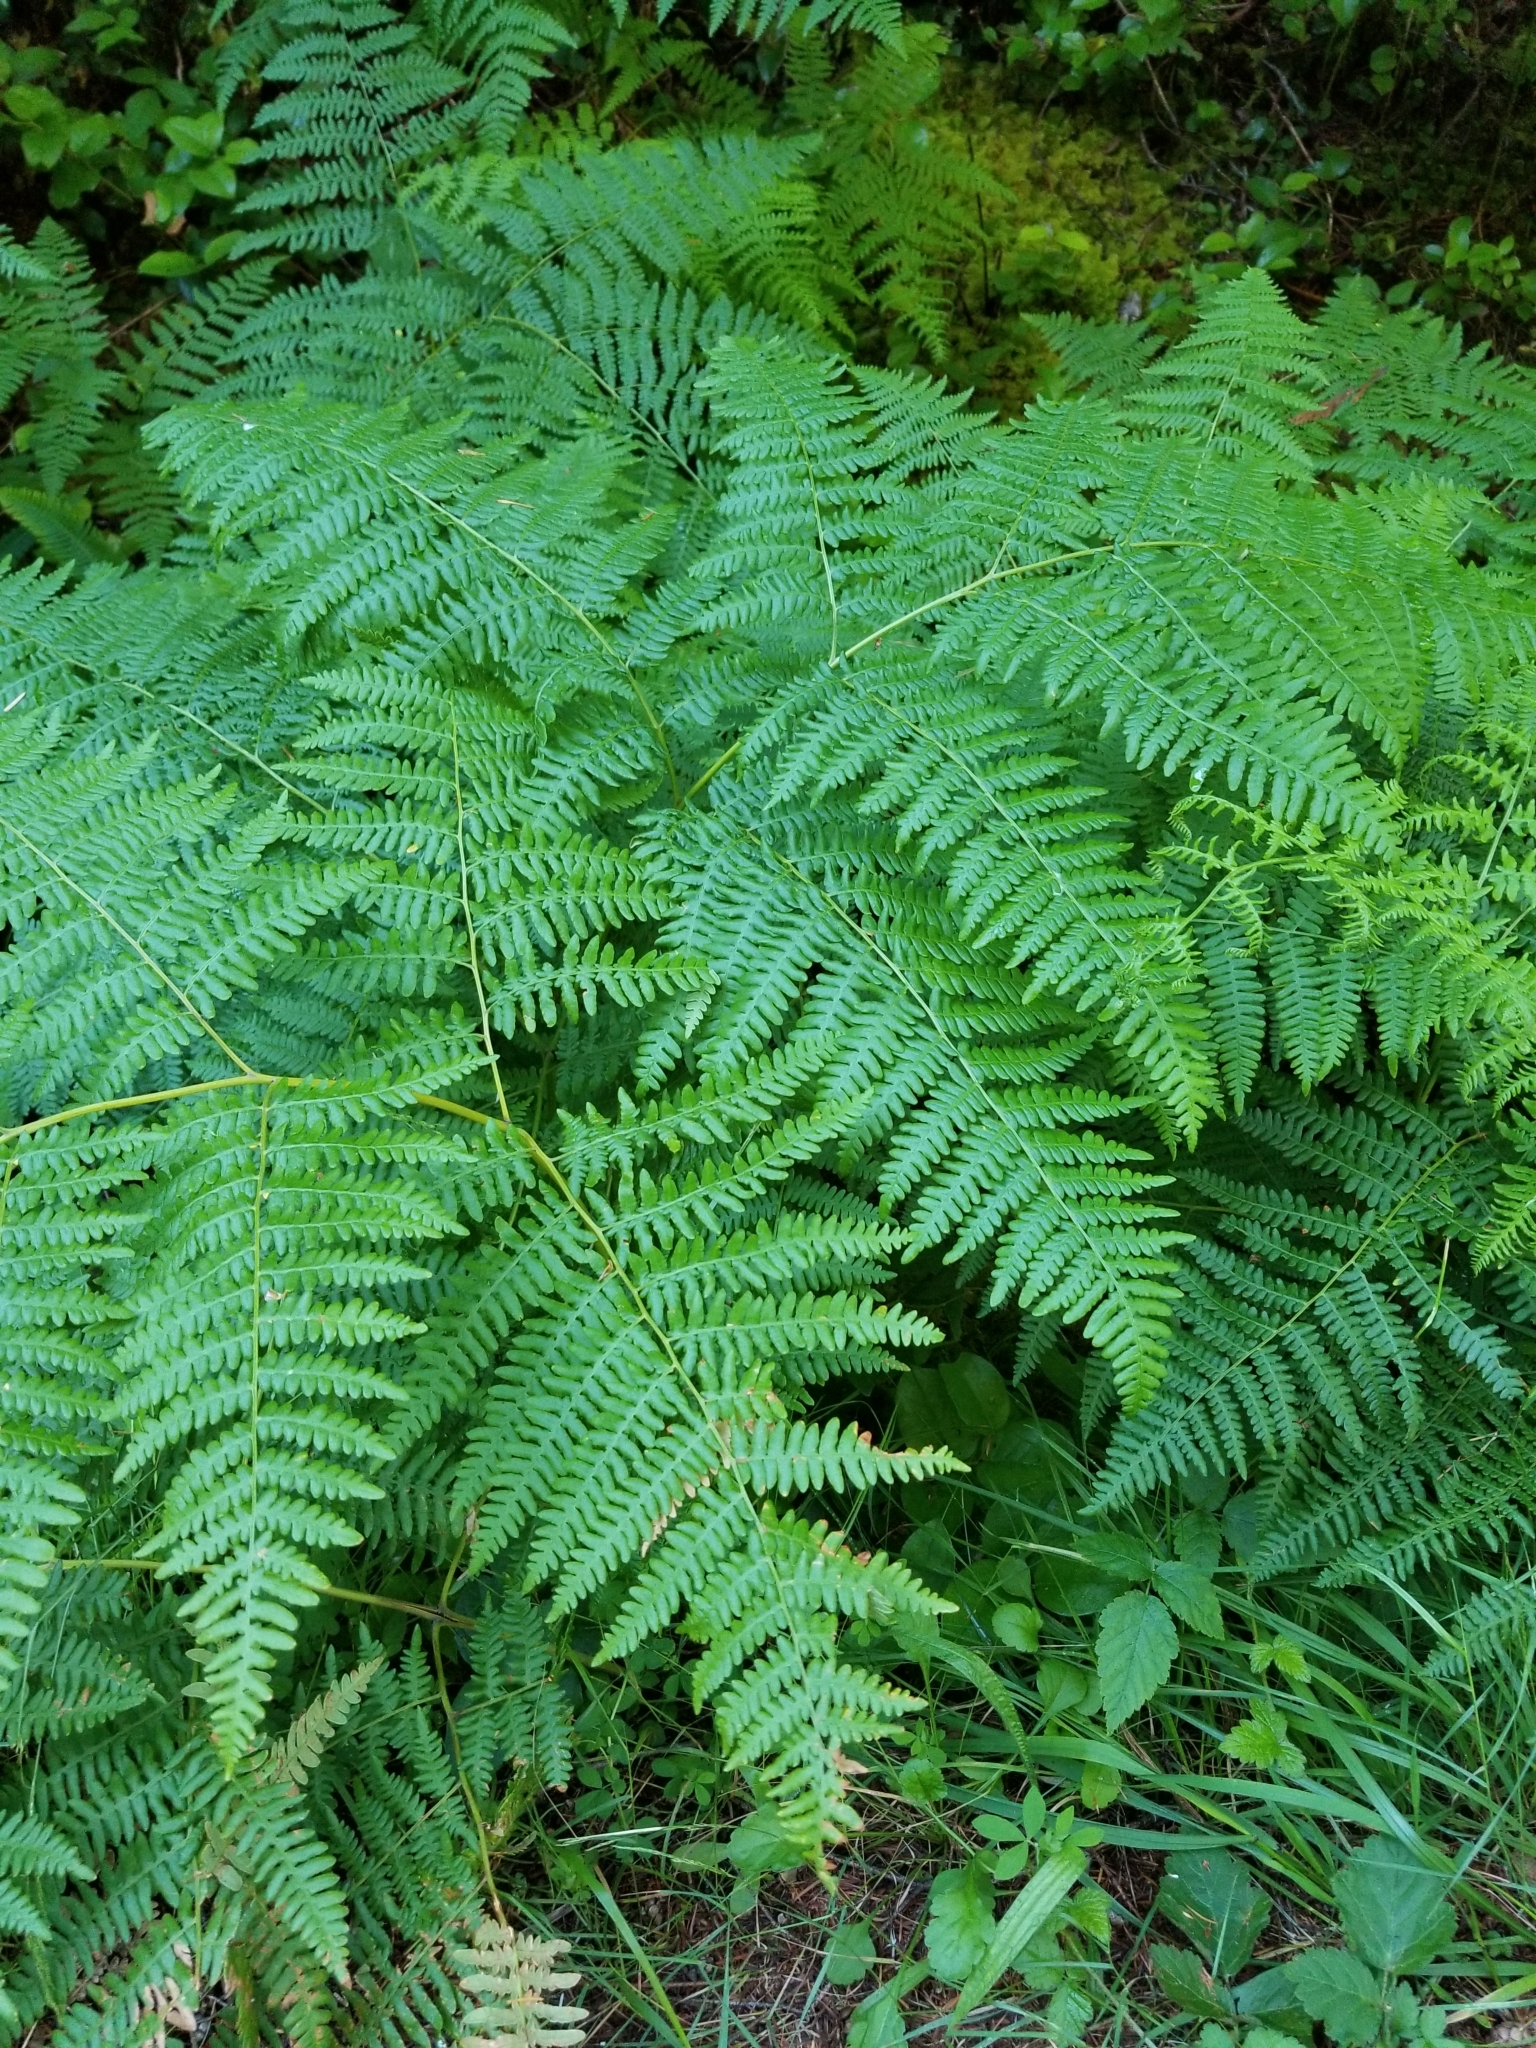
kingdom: Plantae
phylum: Tracheophyta
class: Polypodiopsida
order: Polypodiales
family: Dennstaedtiaceae
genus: Pteridium
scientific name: Pteridium aquilinum
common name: Bracken
